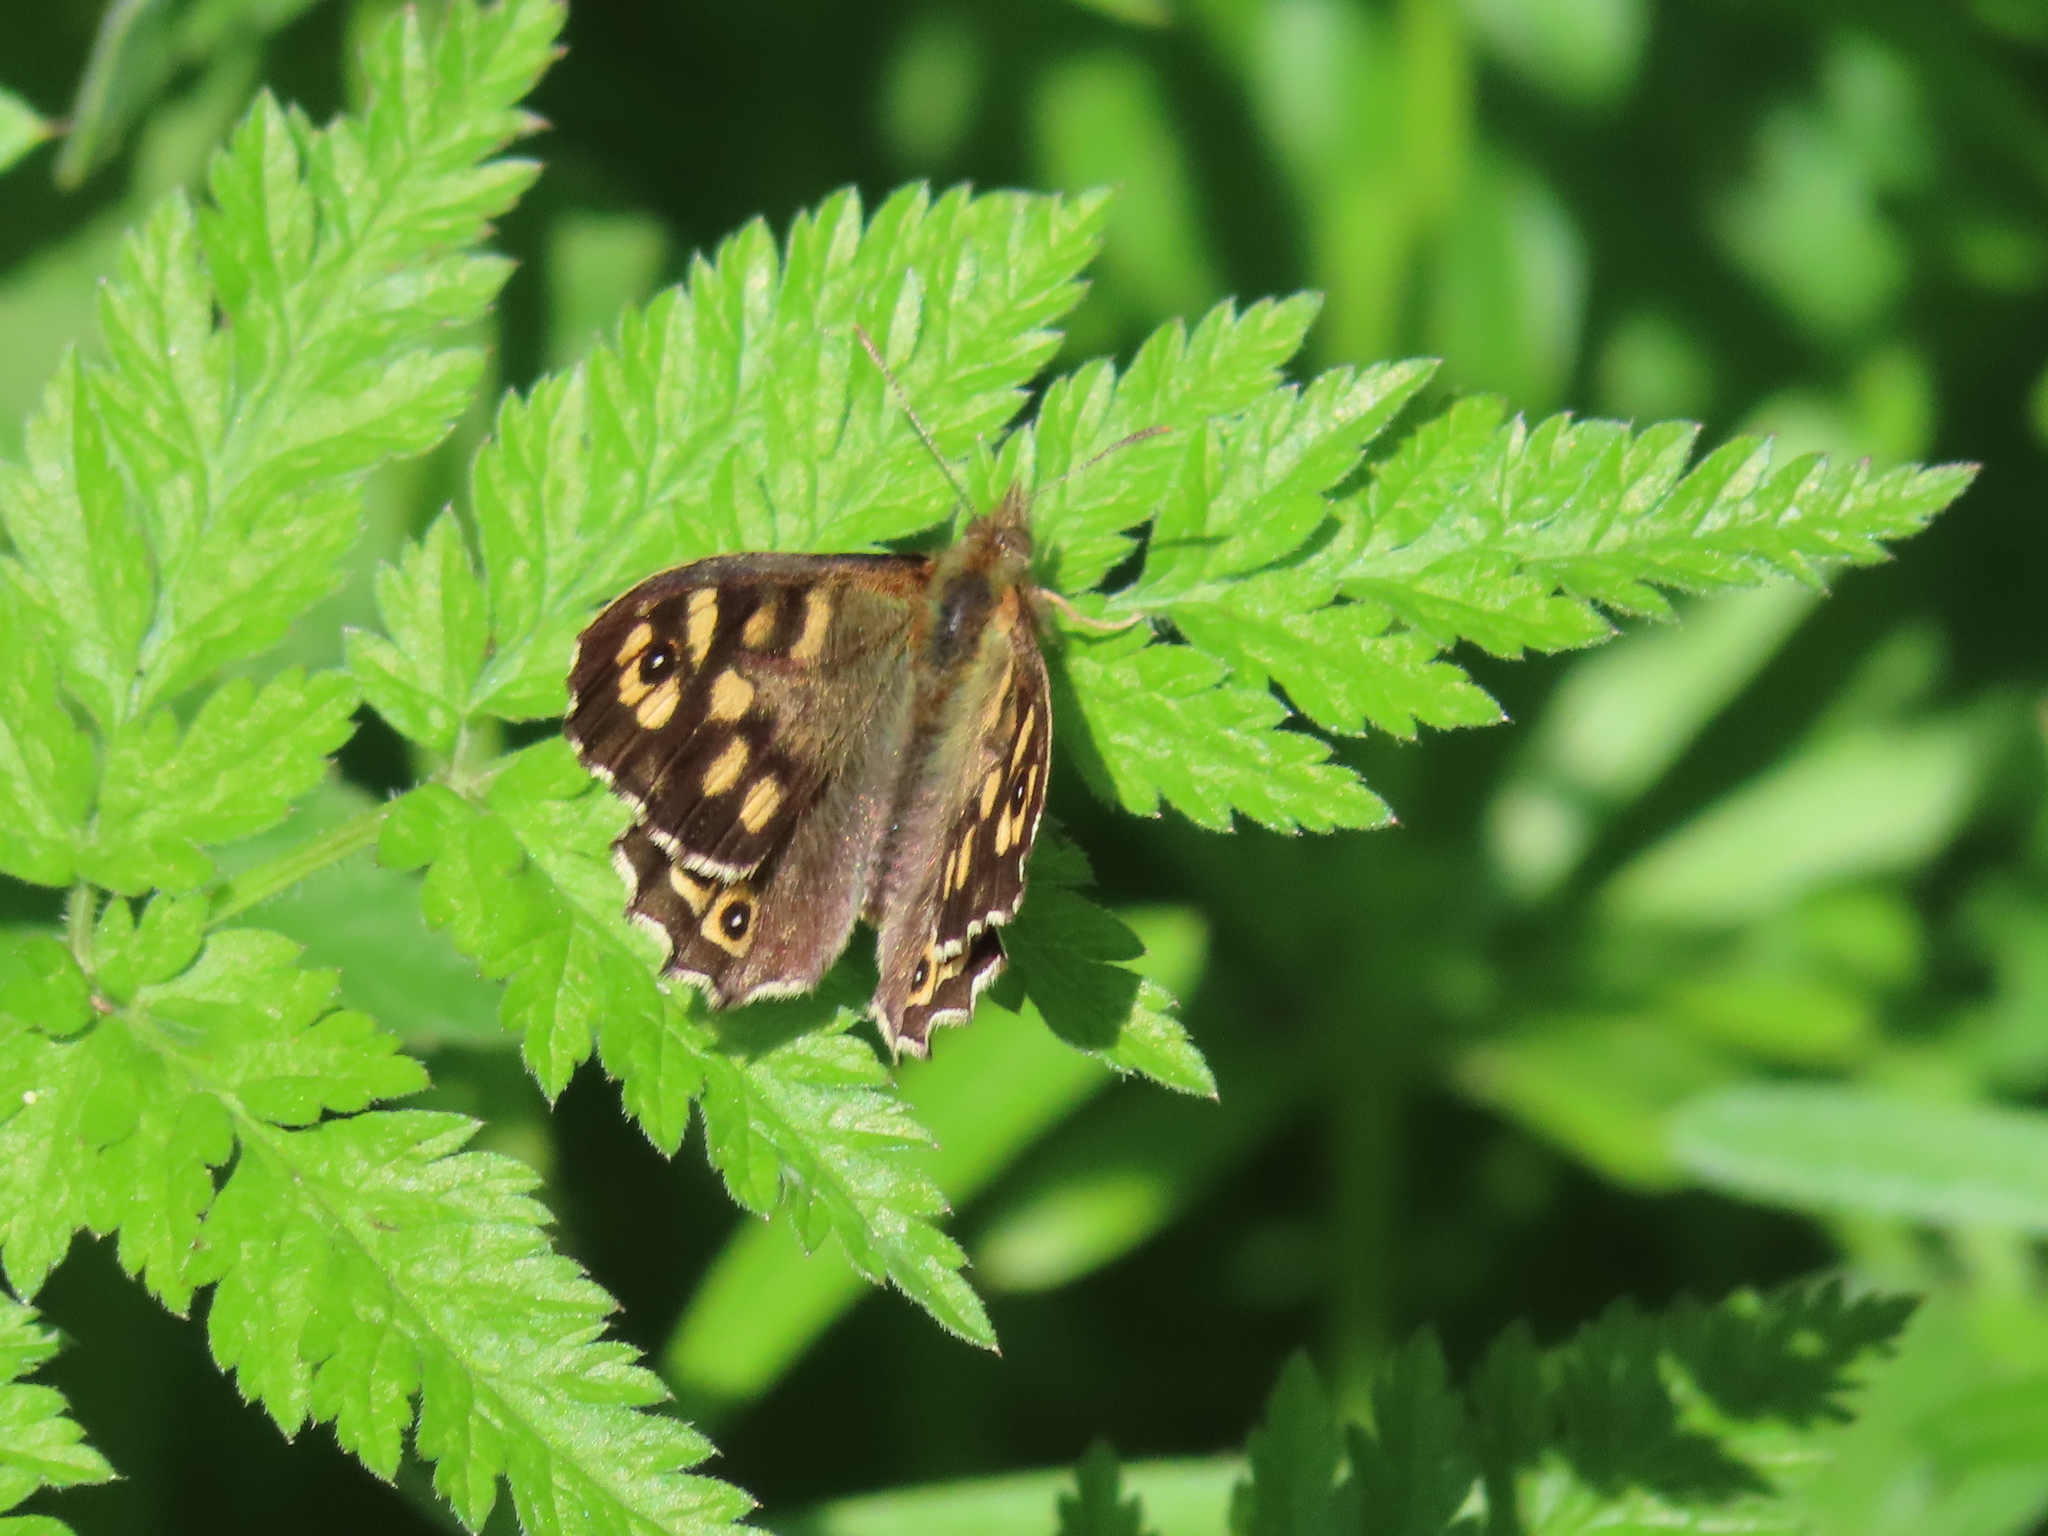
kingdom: Animalia
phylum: Arthropoda
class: Insecta
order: Lepidoptera
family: Nymphalidae
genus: Pararge
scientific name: Pararge aegeria
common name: Speckled wood
